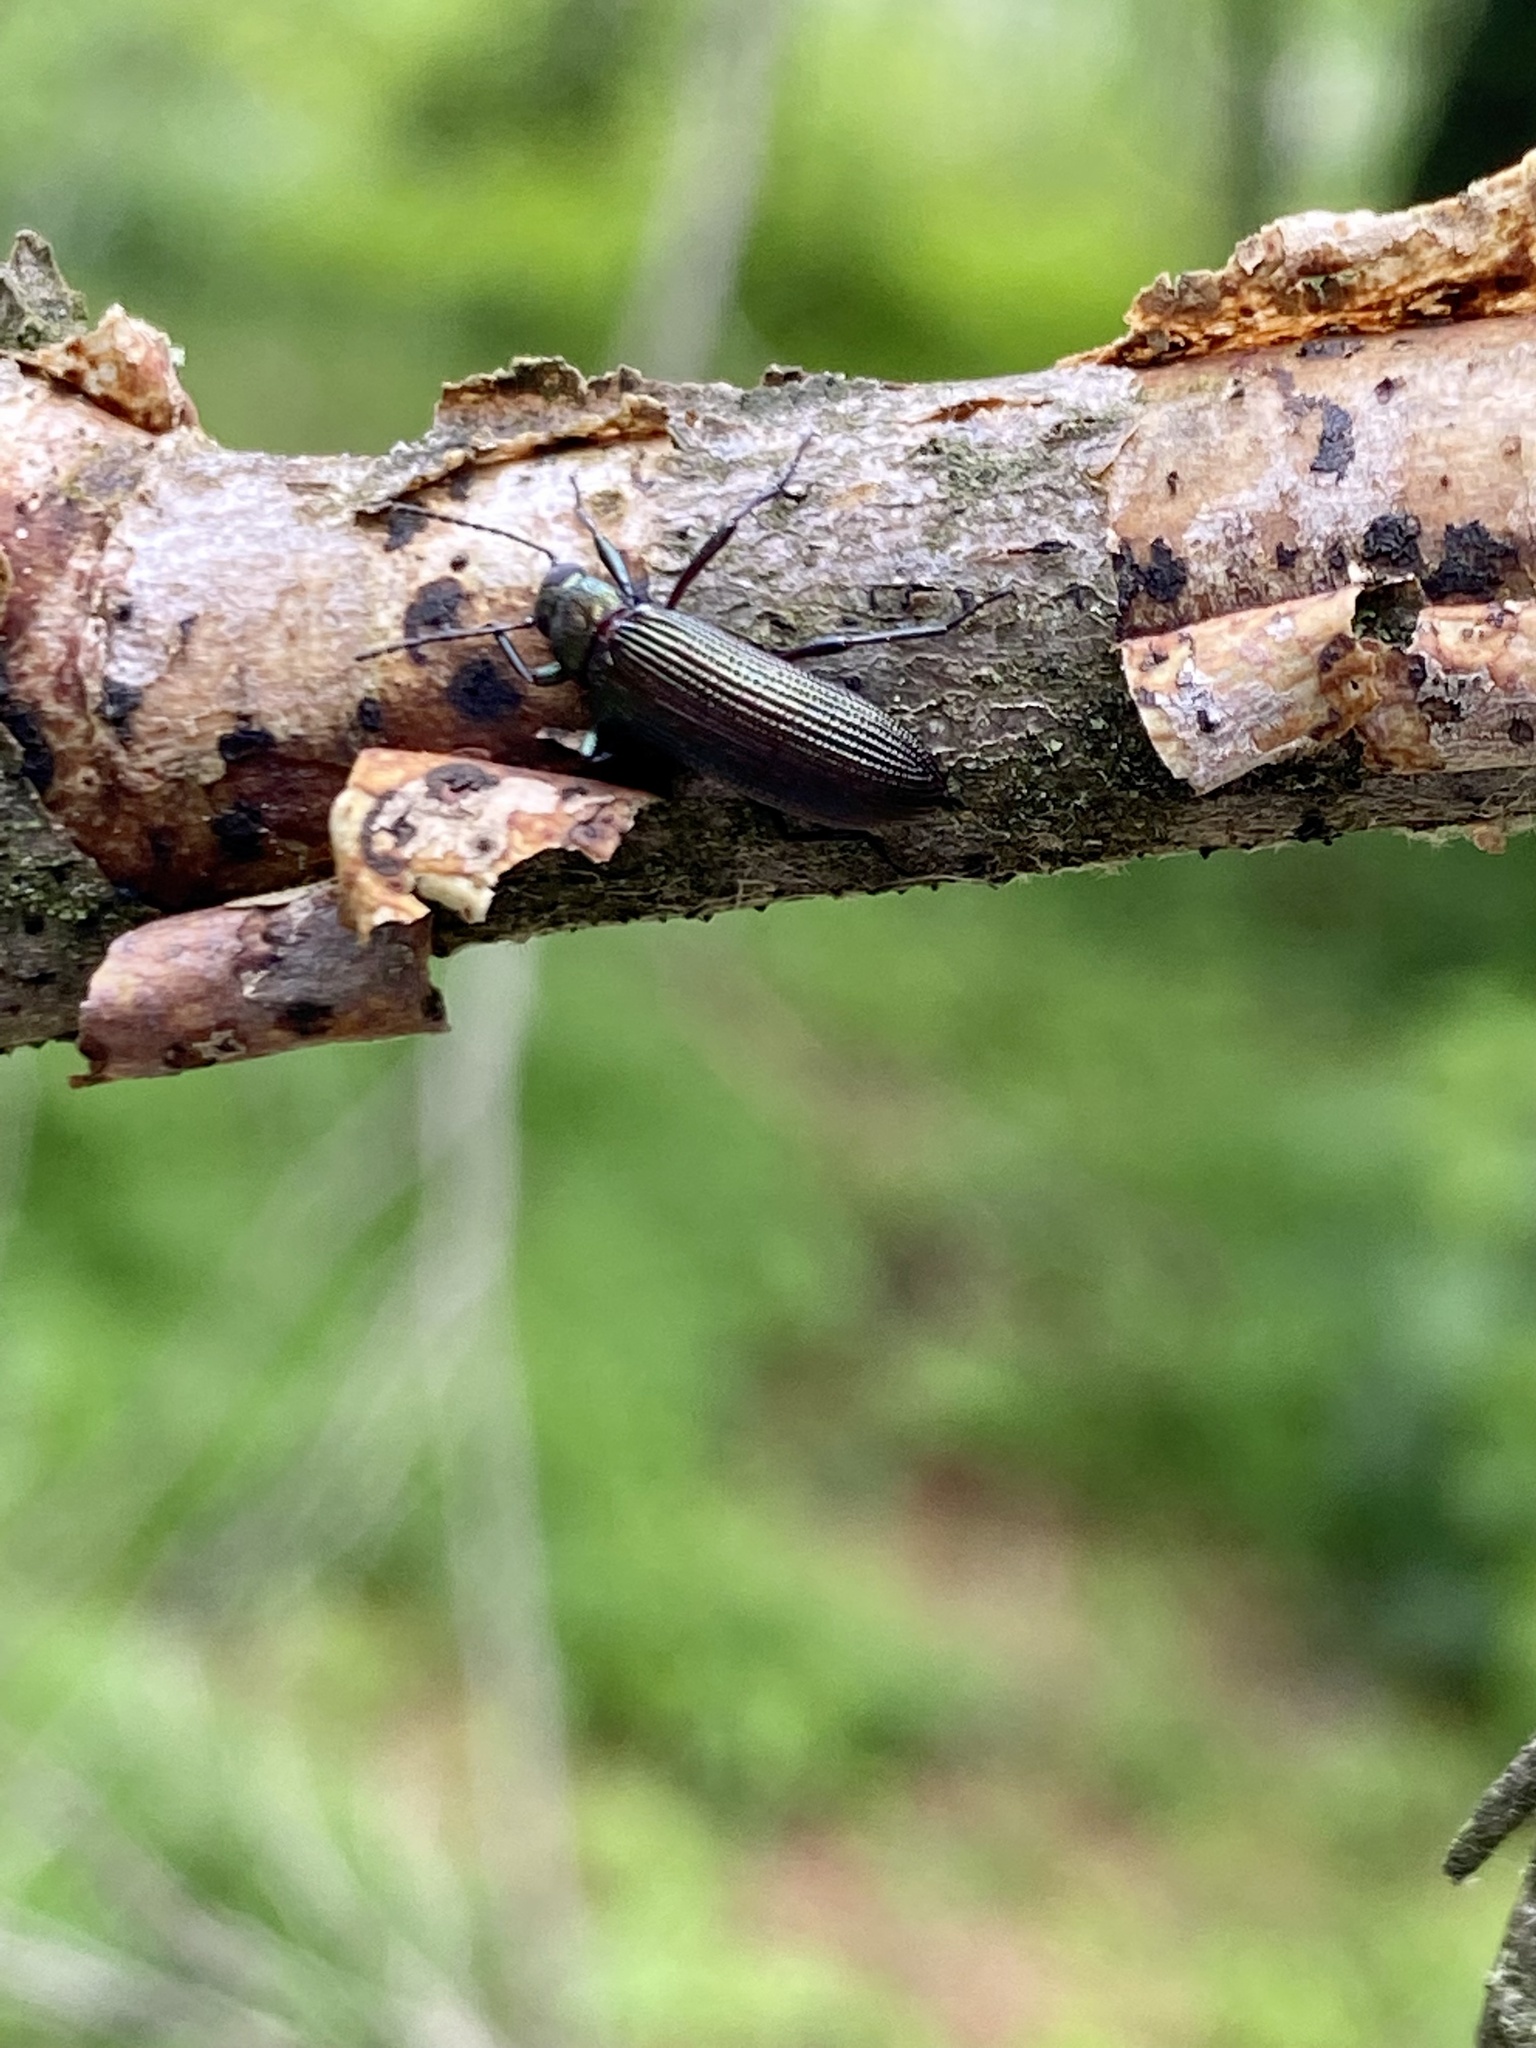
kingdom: Animalia
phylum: Arthropoda
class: Insecta
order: Coleoptera
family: Tenebrionidae
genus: Strongylium
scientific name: Strongylium
